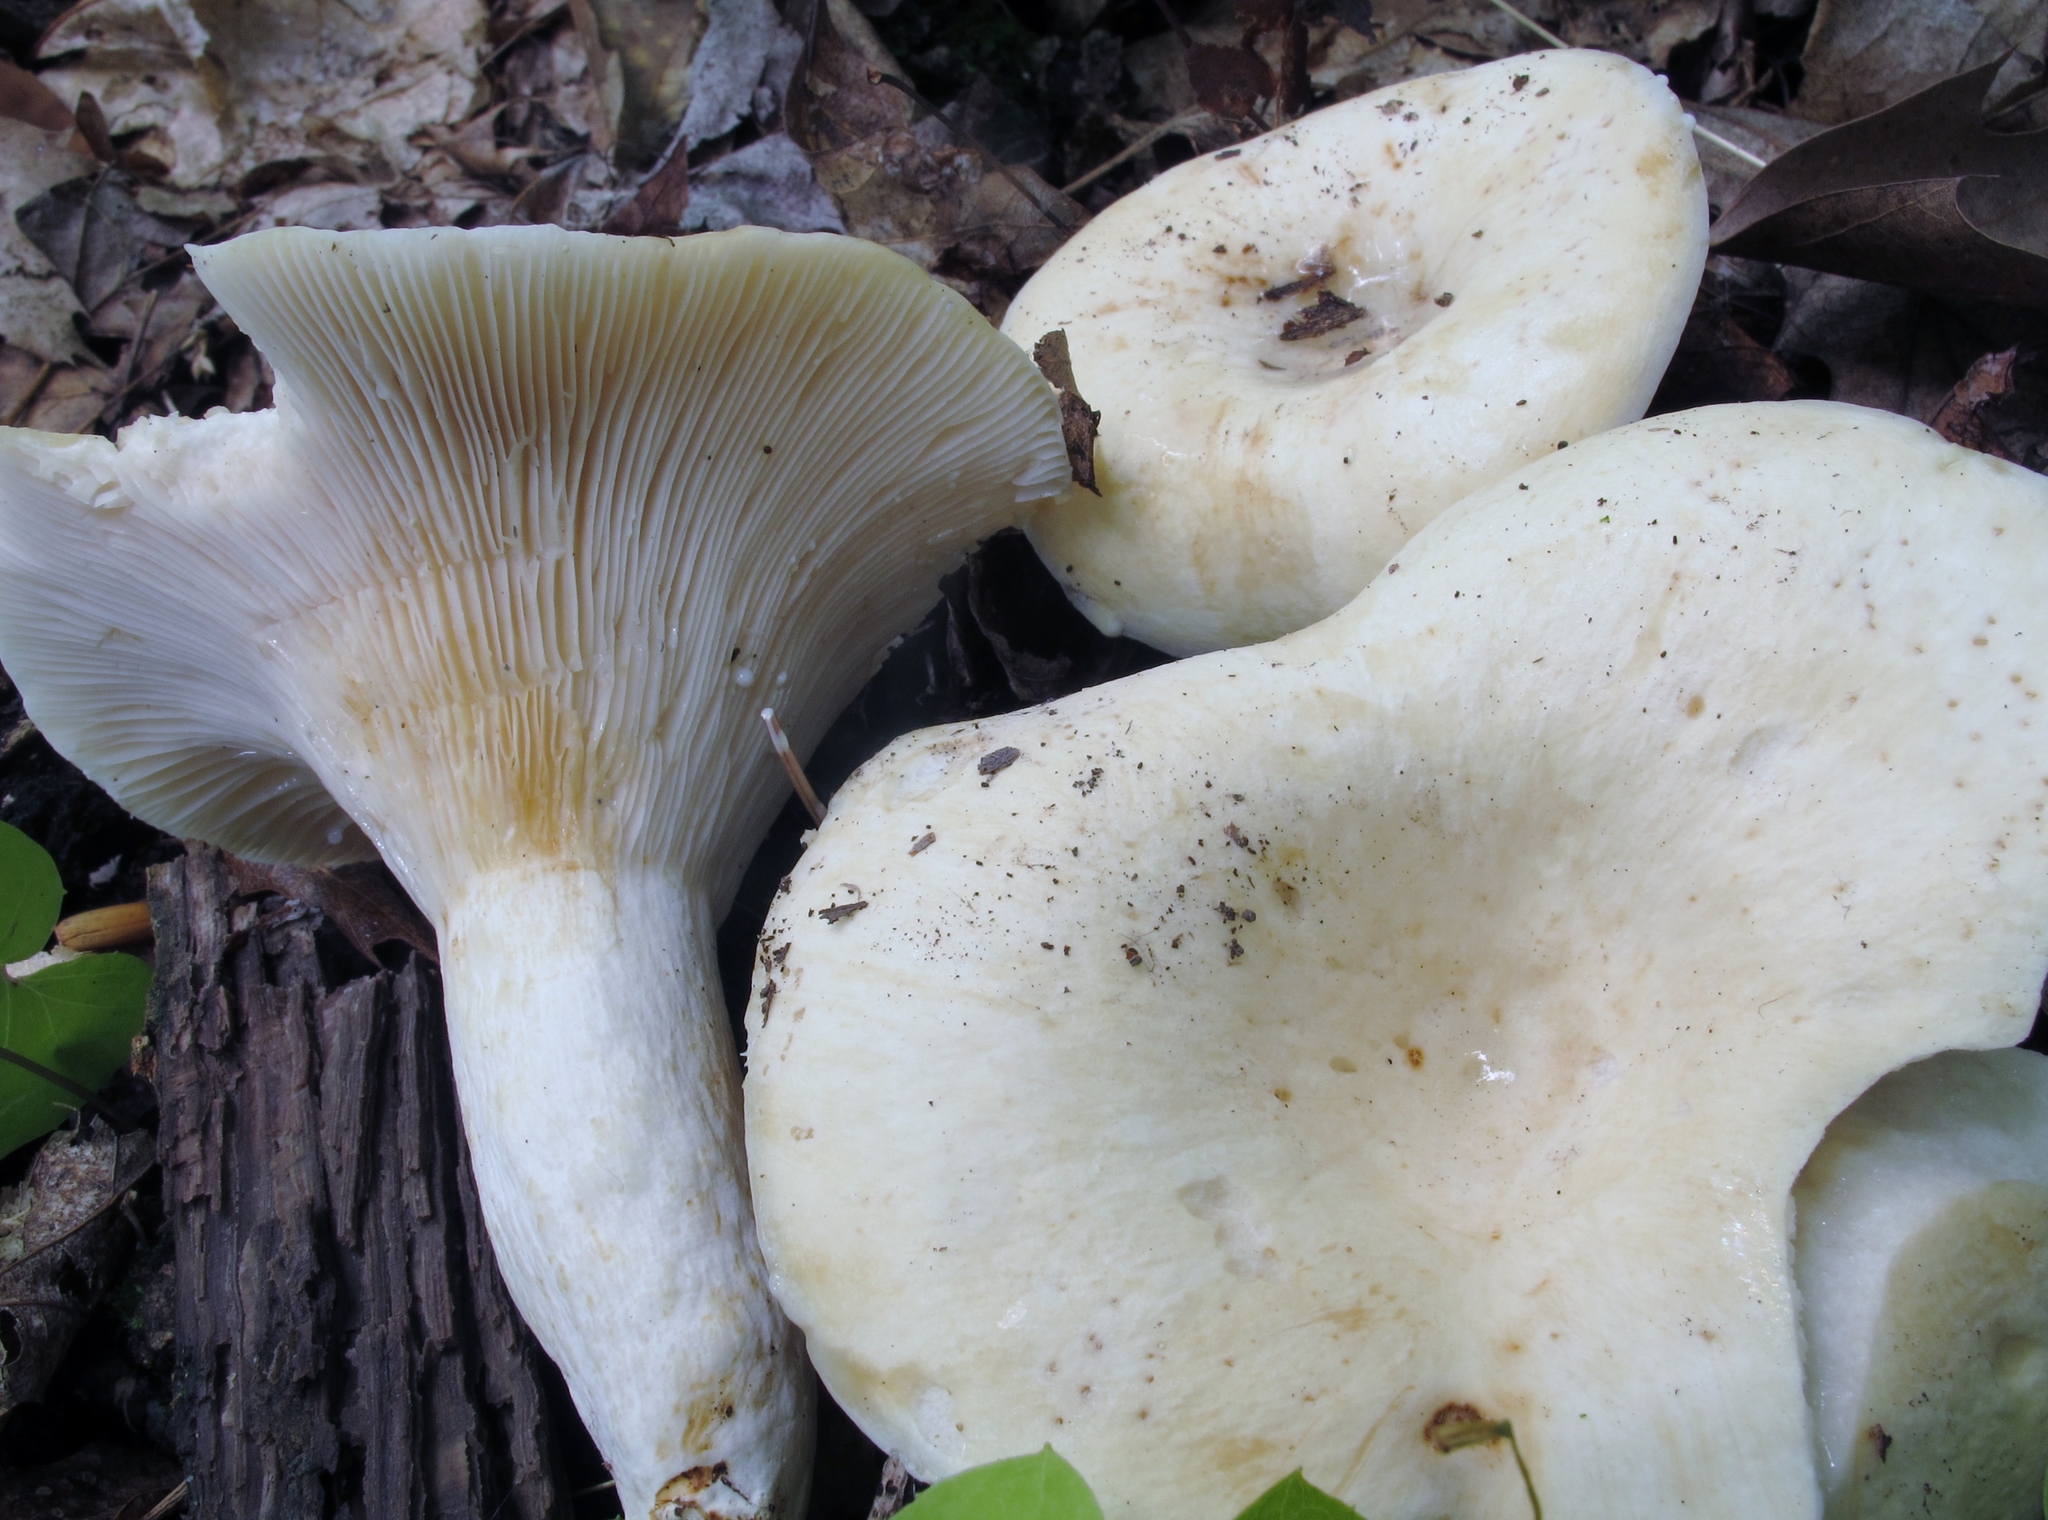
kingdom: Fungi
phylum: Basidiomycota
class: Agaricomycetes
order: Russulales
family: Russulaceae
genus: Lactifluus
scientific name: Lactifluus piperatus
